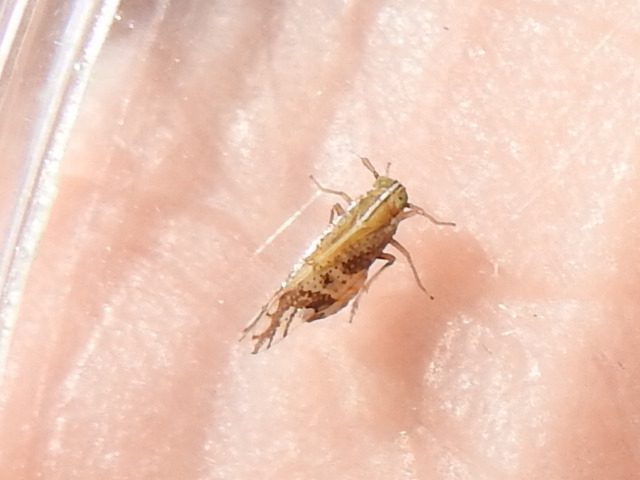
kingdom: Animalia
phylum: Arthropoda
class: Insecta
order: Hemiptera
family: Delphacidae
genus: Liburniella
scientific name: Liburniella ornata
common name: Ornate planthopper
